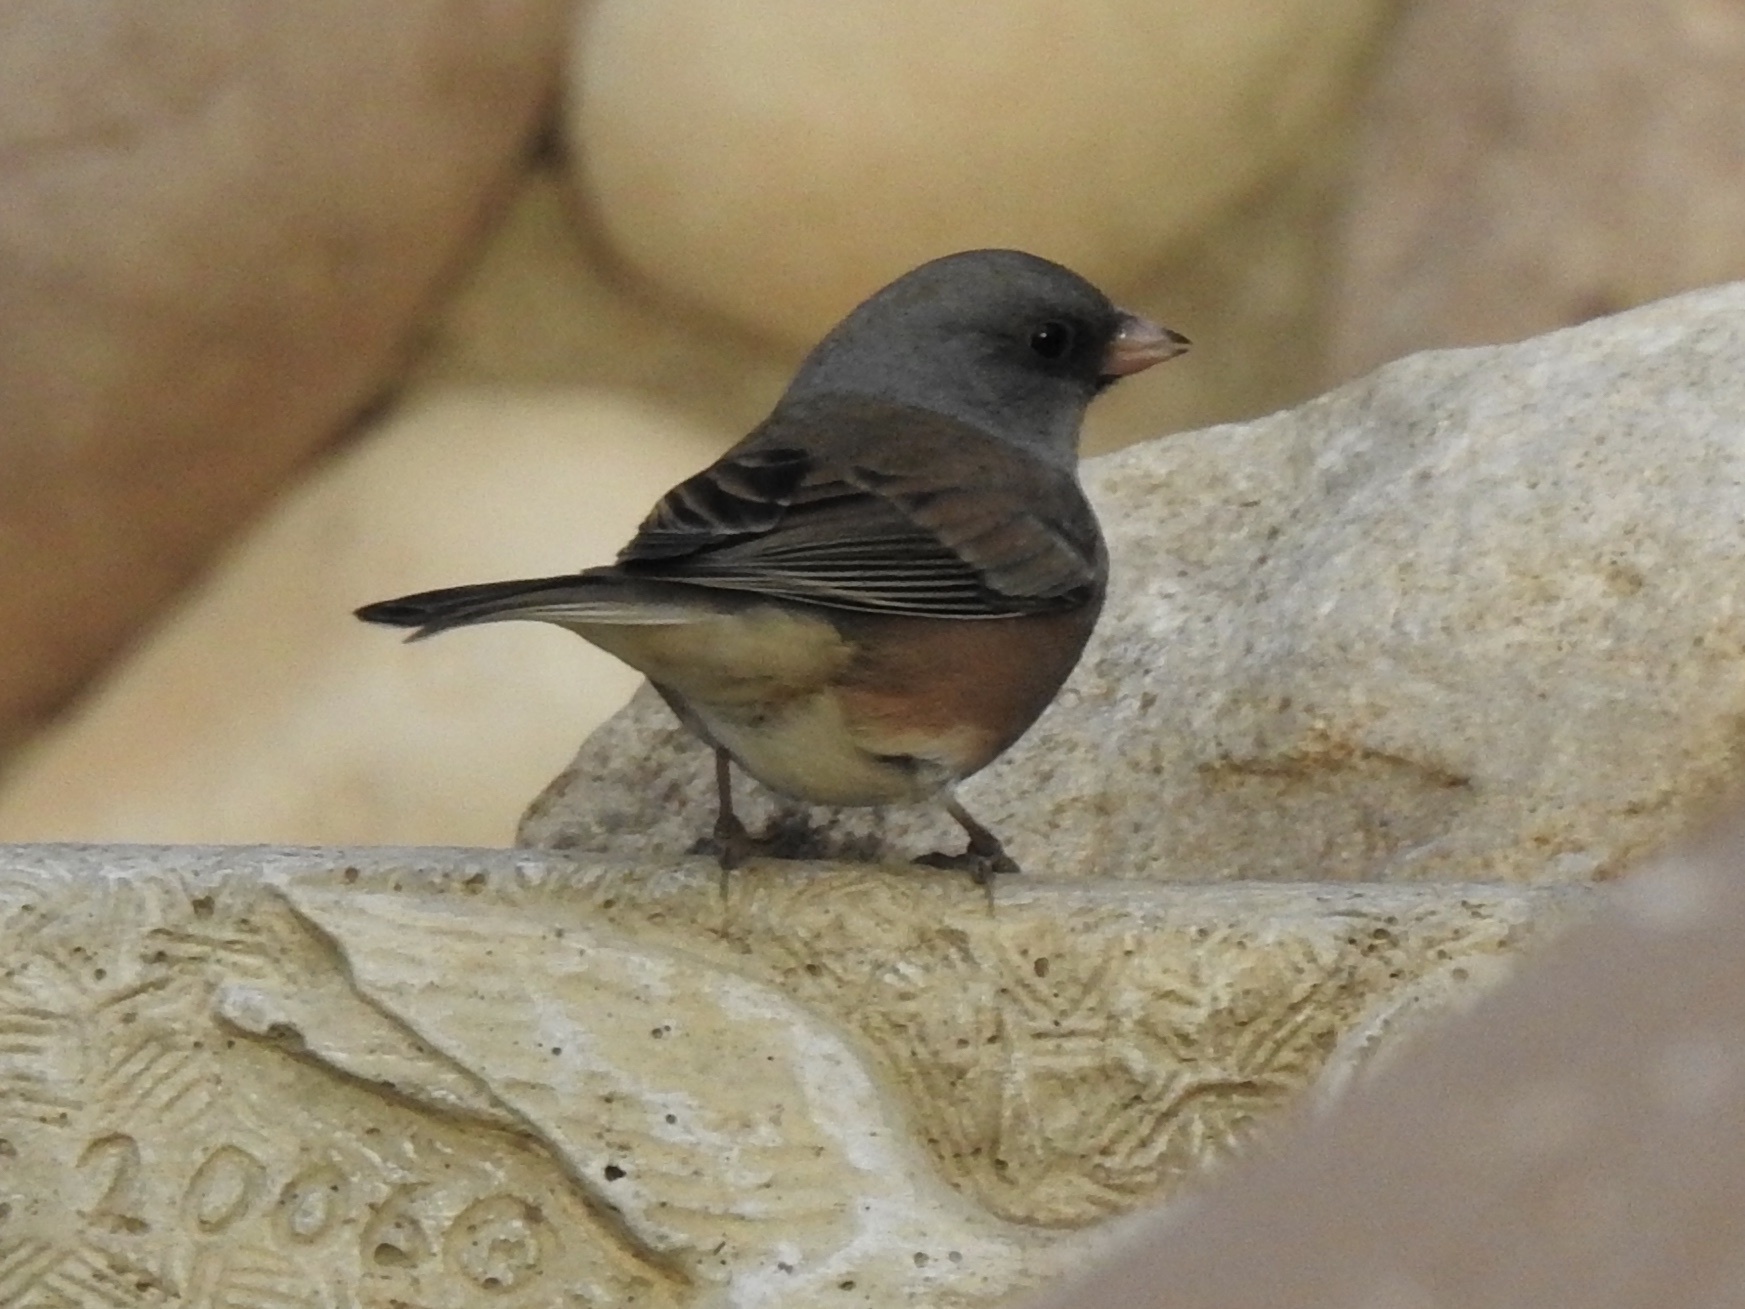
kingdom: Animalia
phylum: Chordata
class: Aves
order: Passeriformes
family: Passerellidae
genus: Junco
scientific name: Junco hyemalis
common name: Dark-eyed junco
